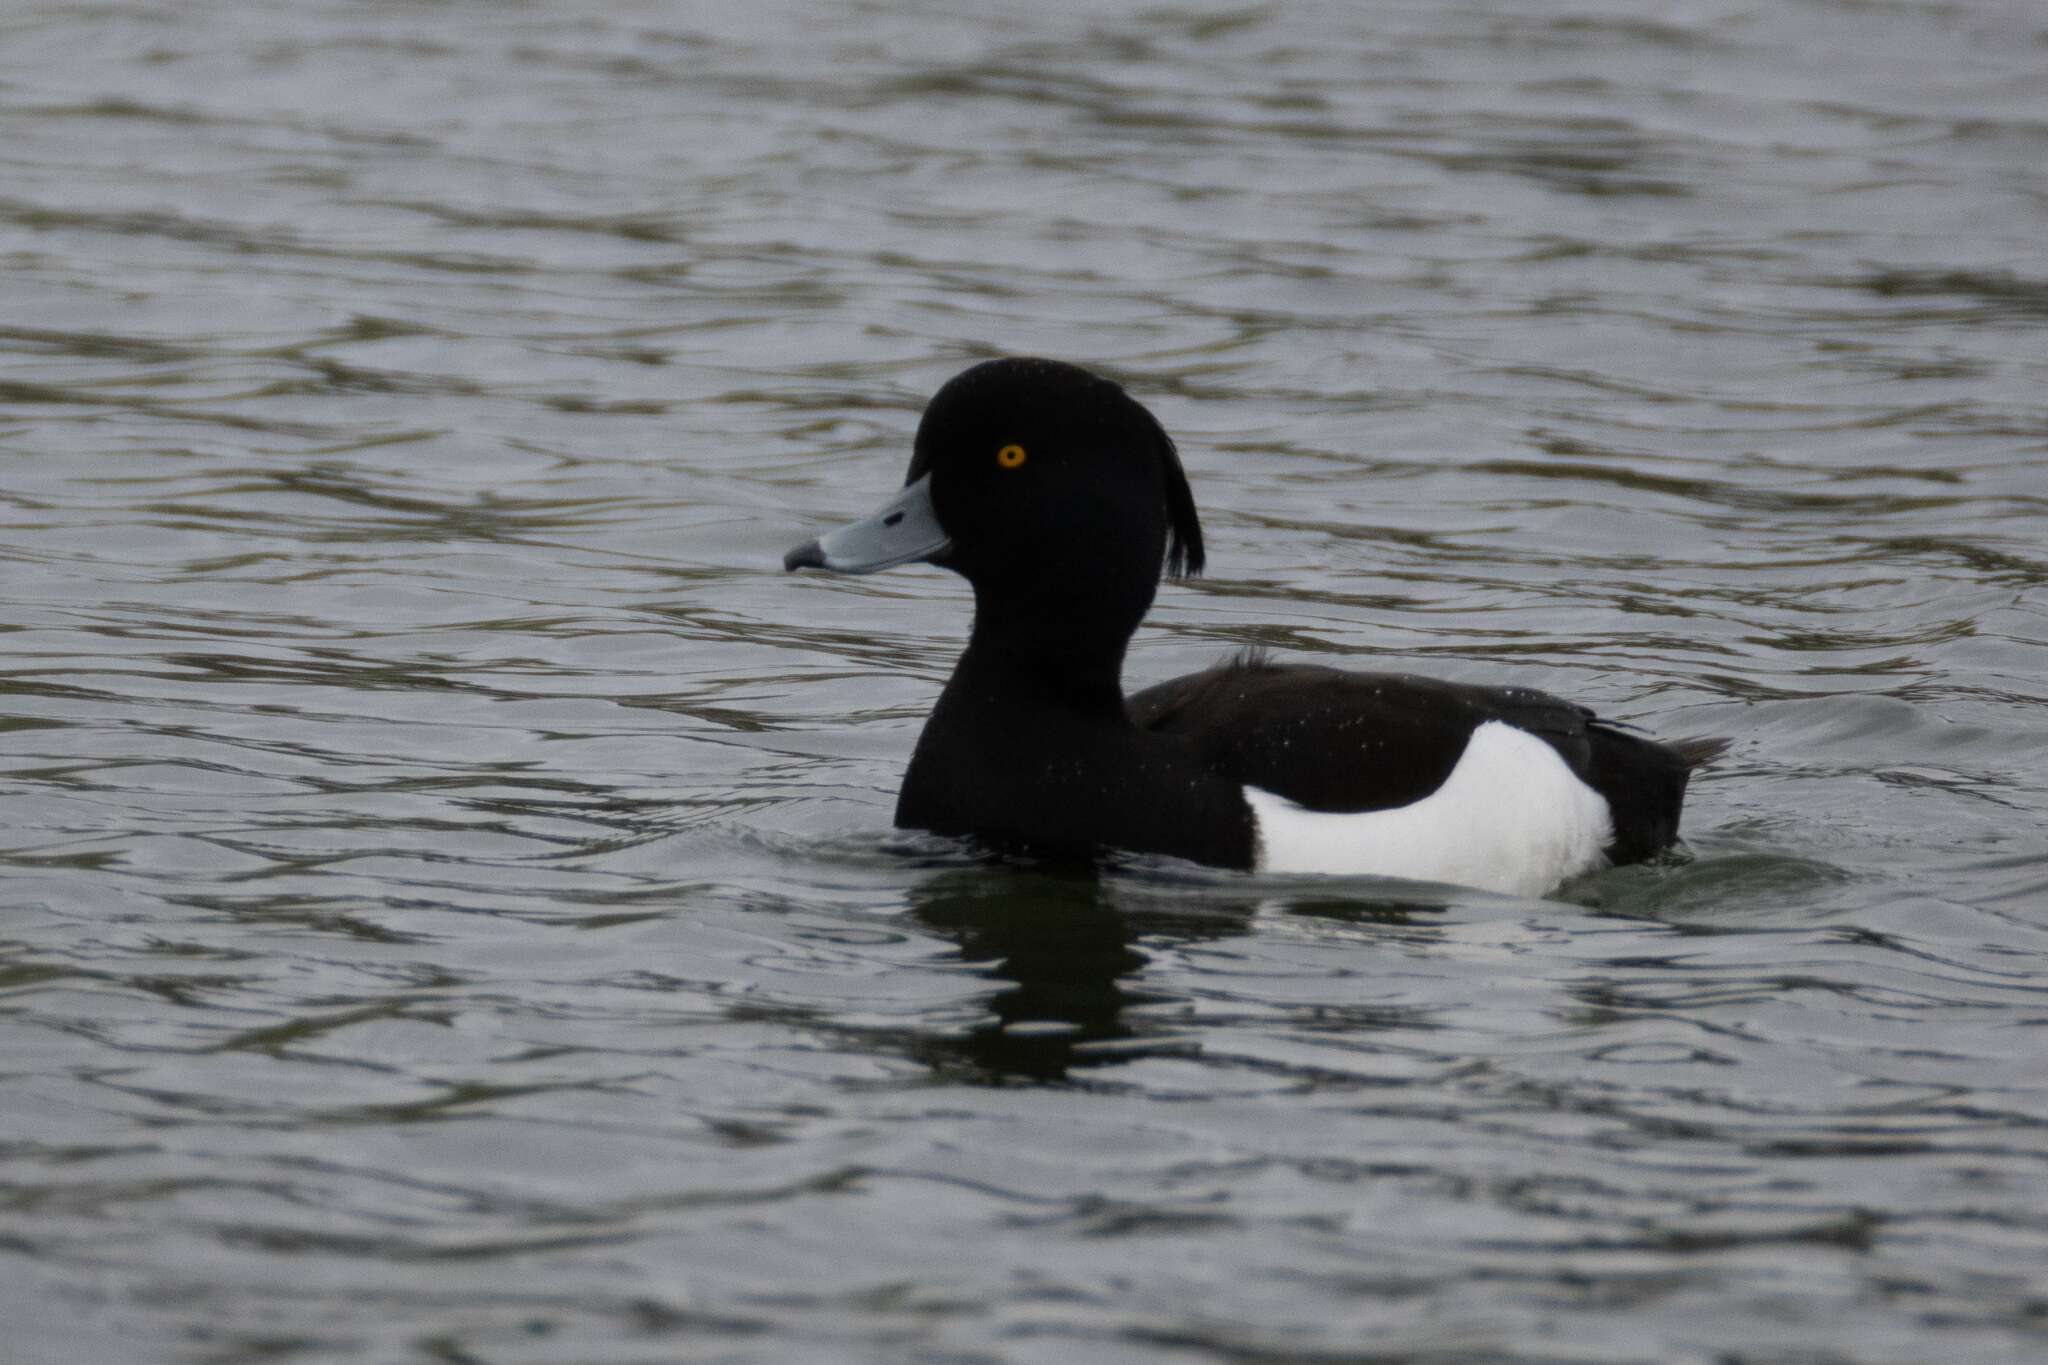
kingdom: Animalia
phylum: Chordata
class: Aves
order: Anseriformes
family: Anatidae
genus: Aythya
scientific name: Aythya fuligula
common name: Tufted duck
